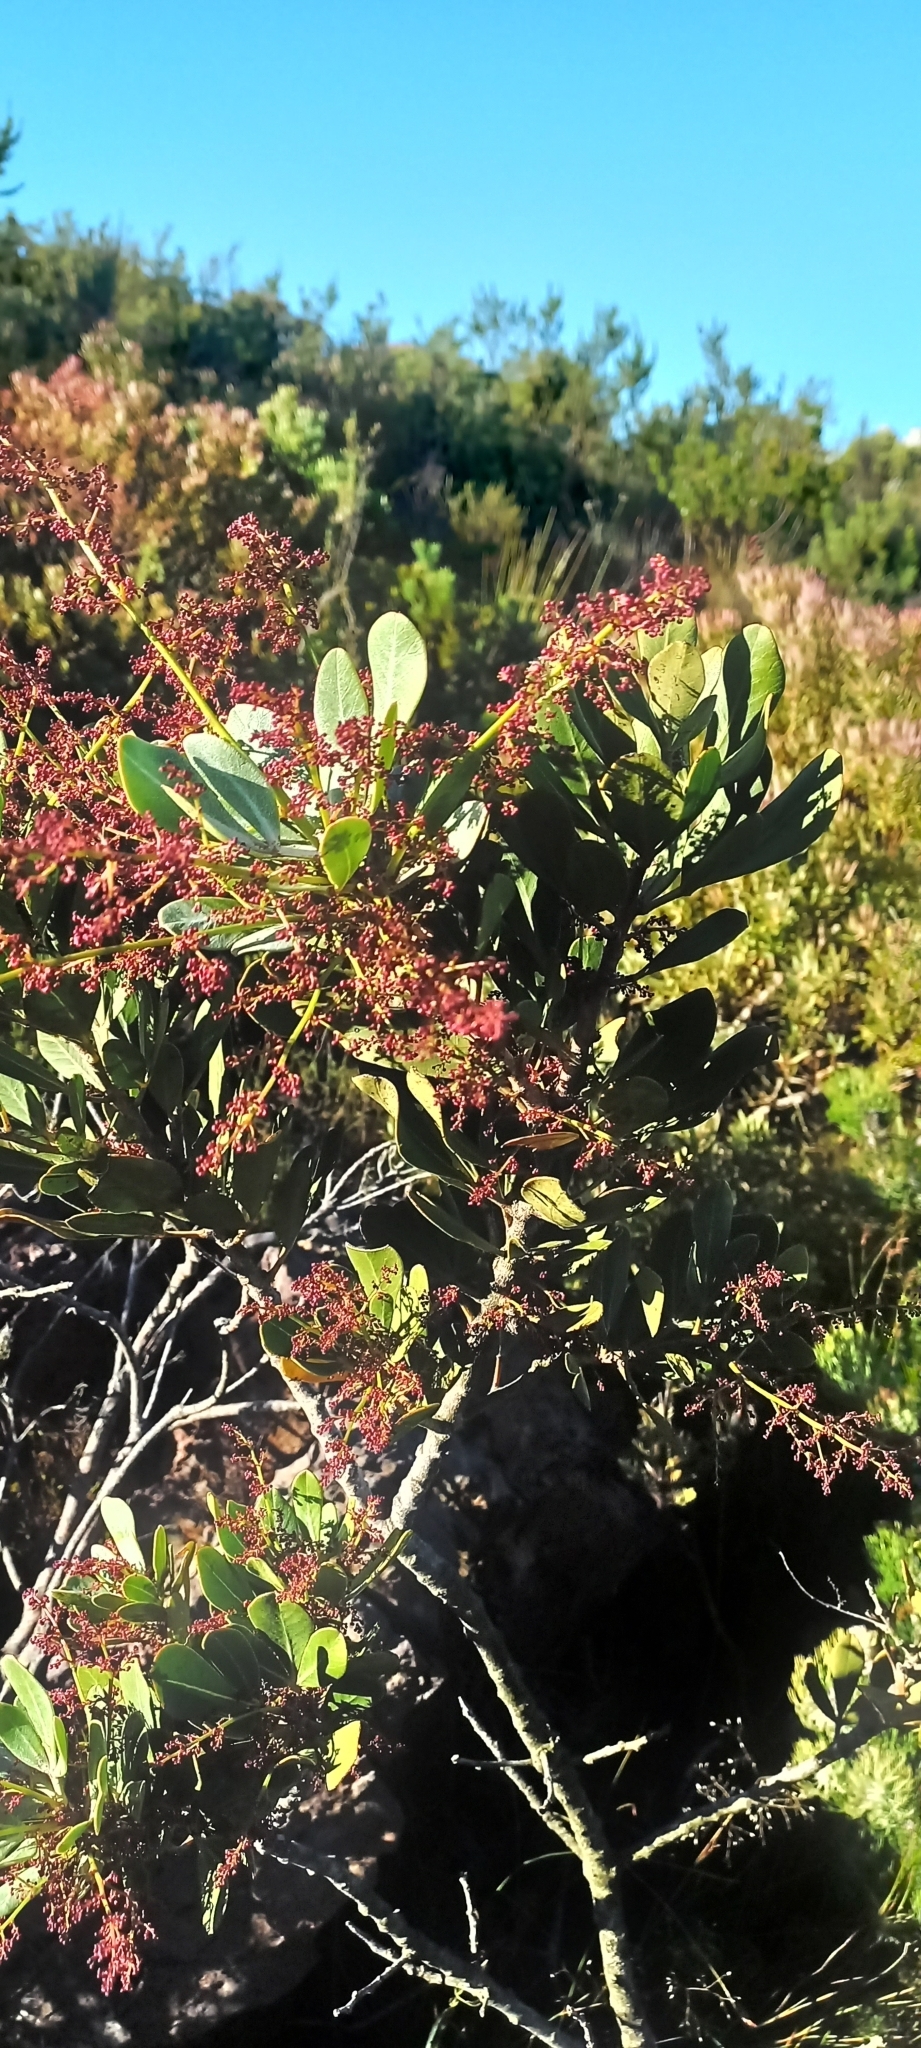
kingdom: Plantae
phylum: Tracheophyta
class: Magnoliopsida
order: Sapindales
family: Anacardiaceae
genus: Searsia
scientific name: Searsia scytophylla
